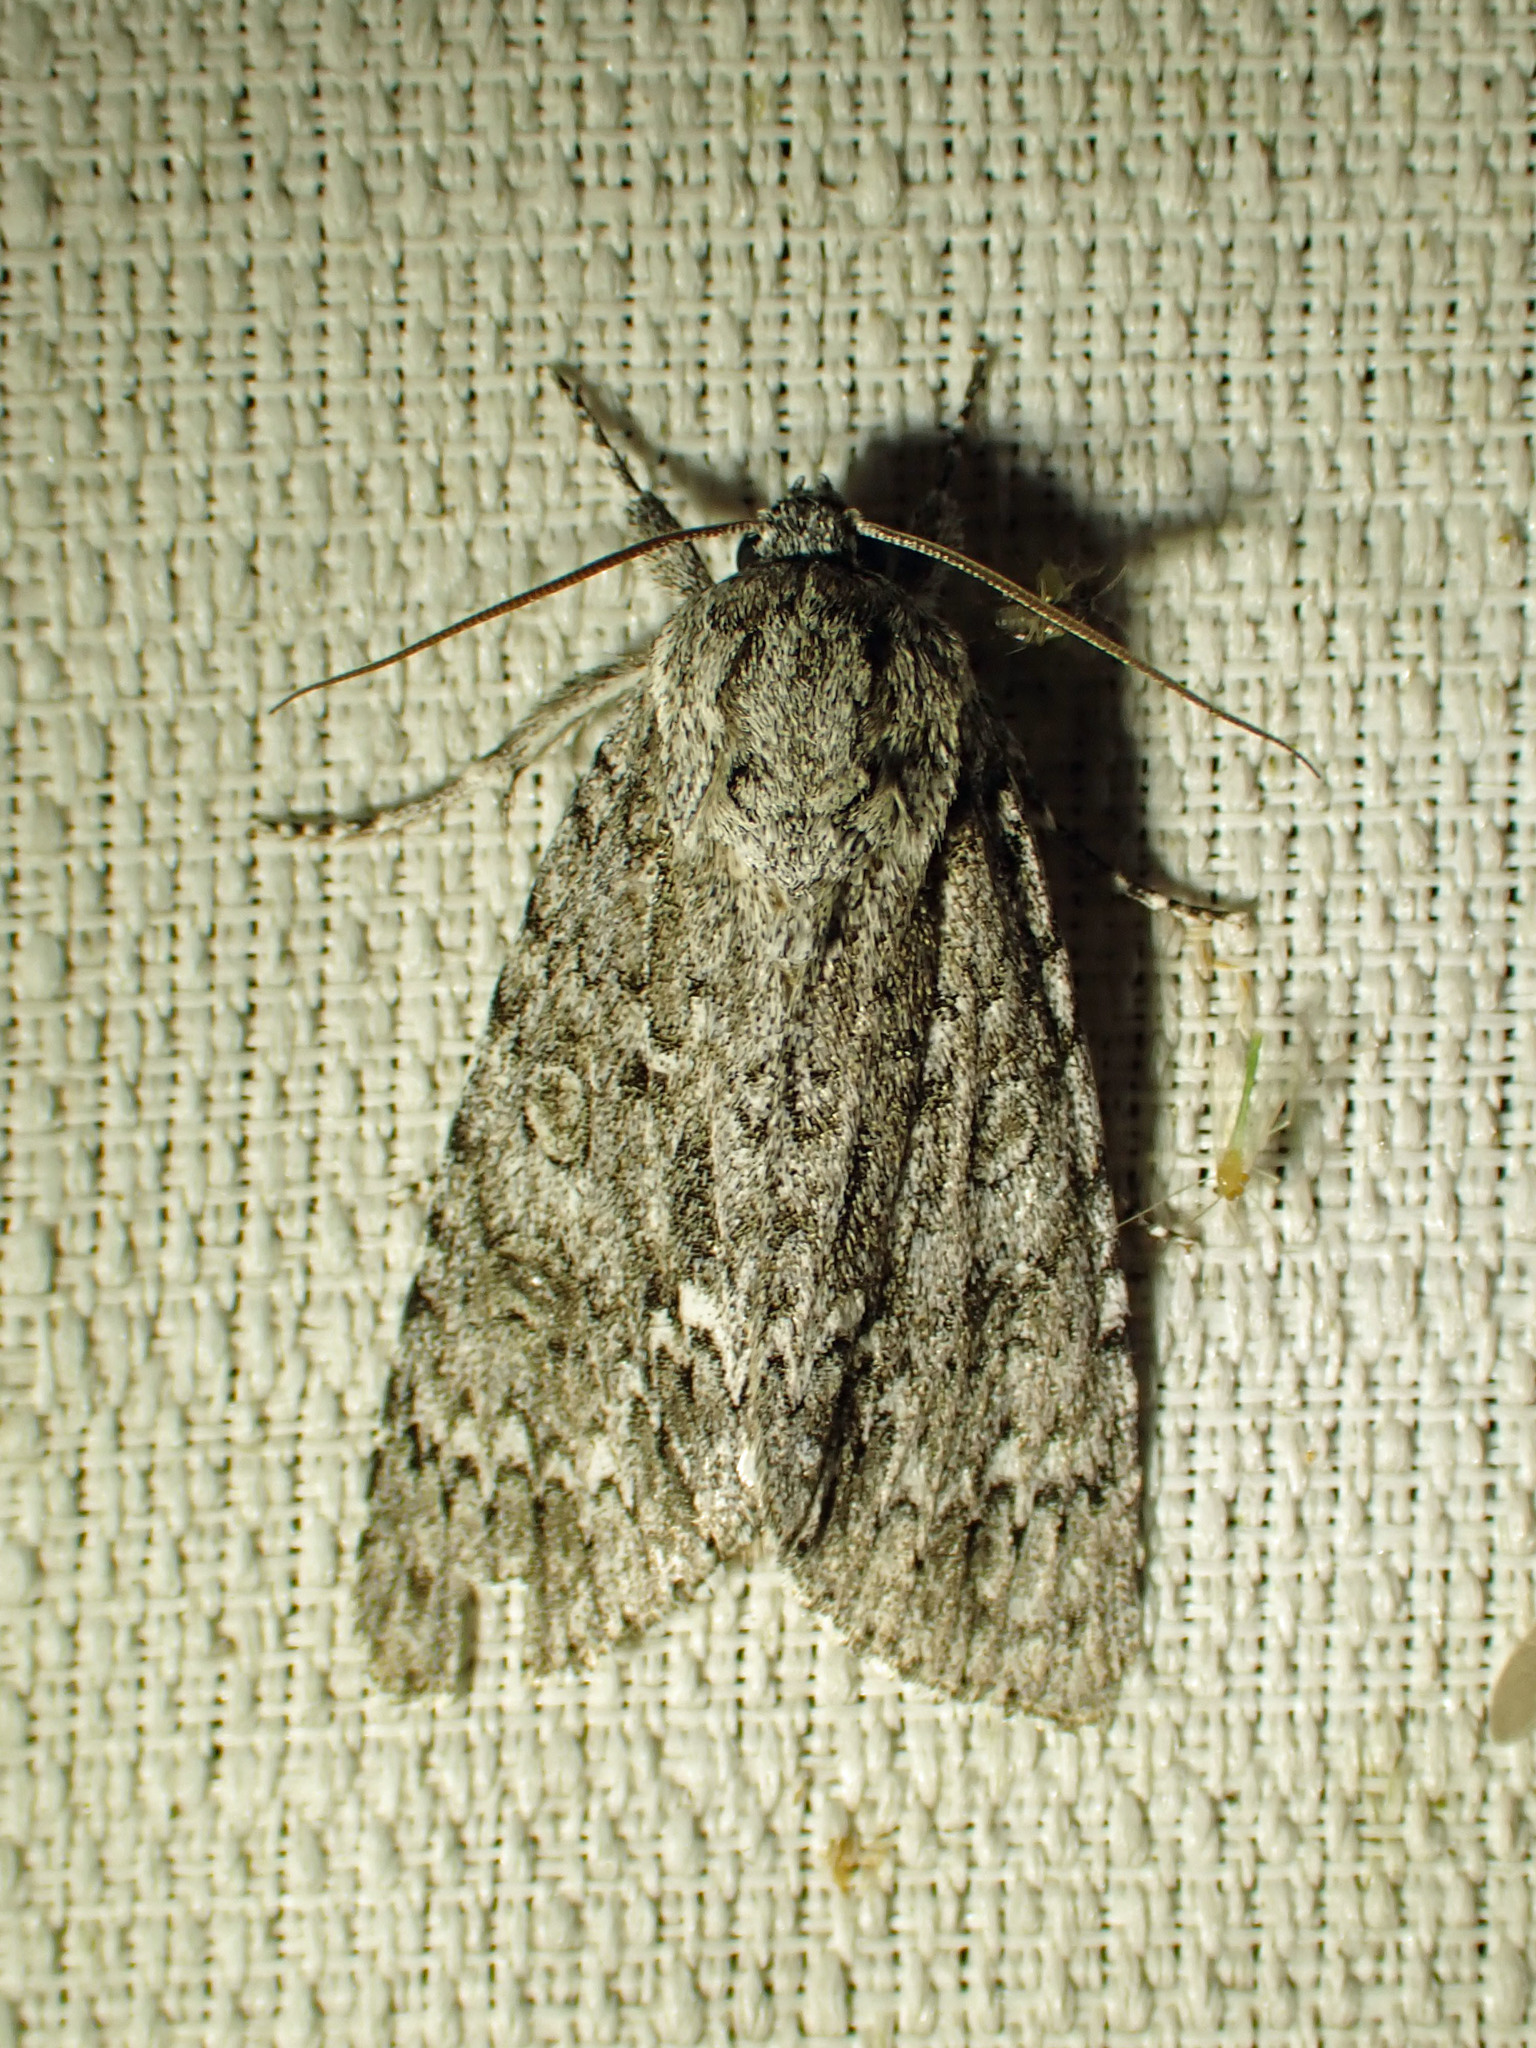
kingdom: Animalia
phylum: Arthropoda
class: Insecta
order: Lepidoptera
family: Noctuidae
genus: Acronicta
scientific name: Acronicta impleta
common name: Powdered dagger
